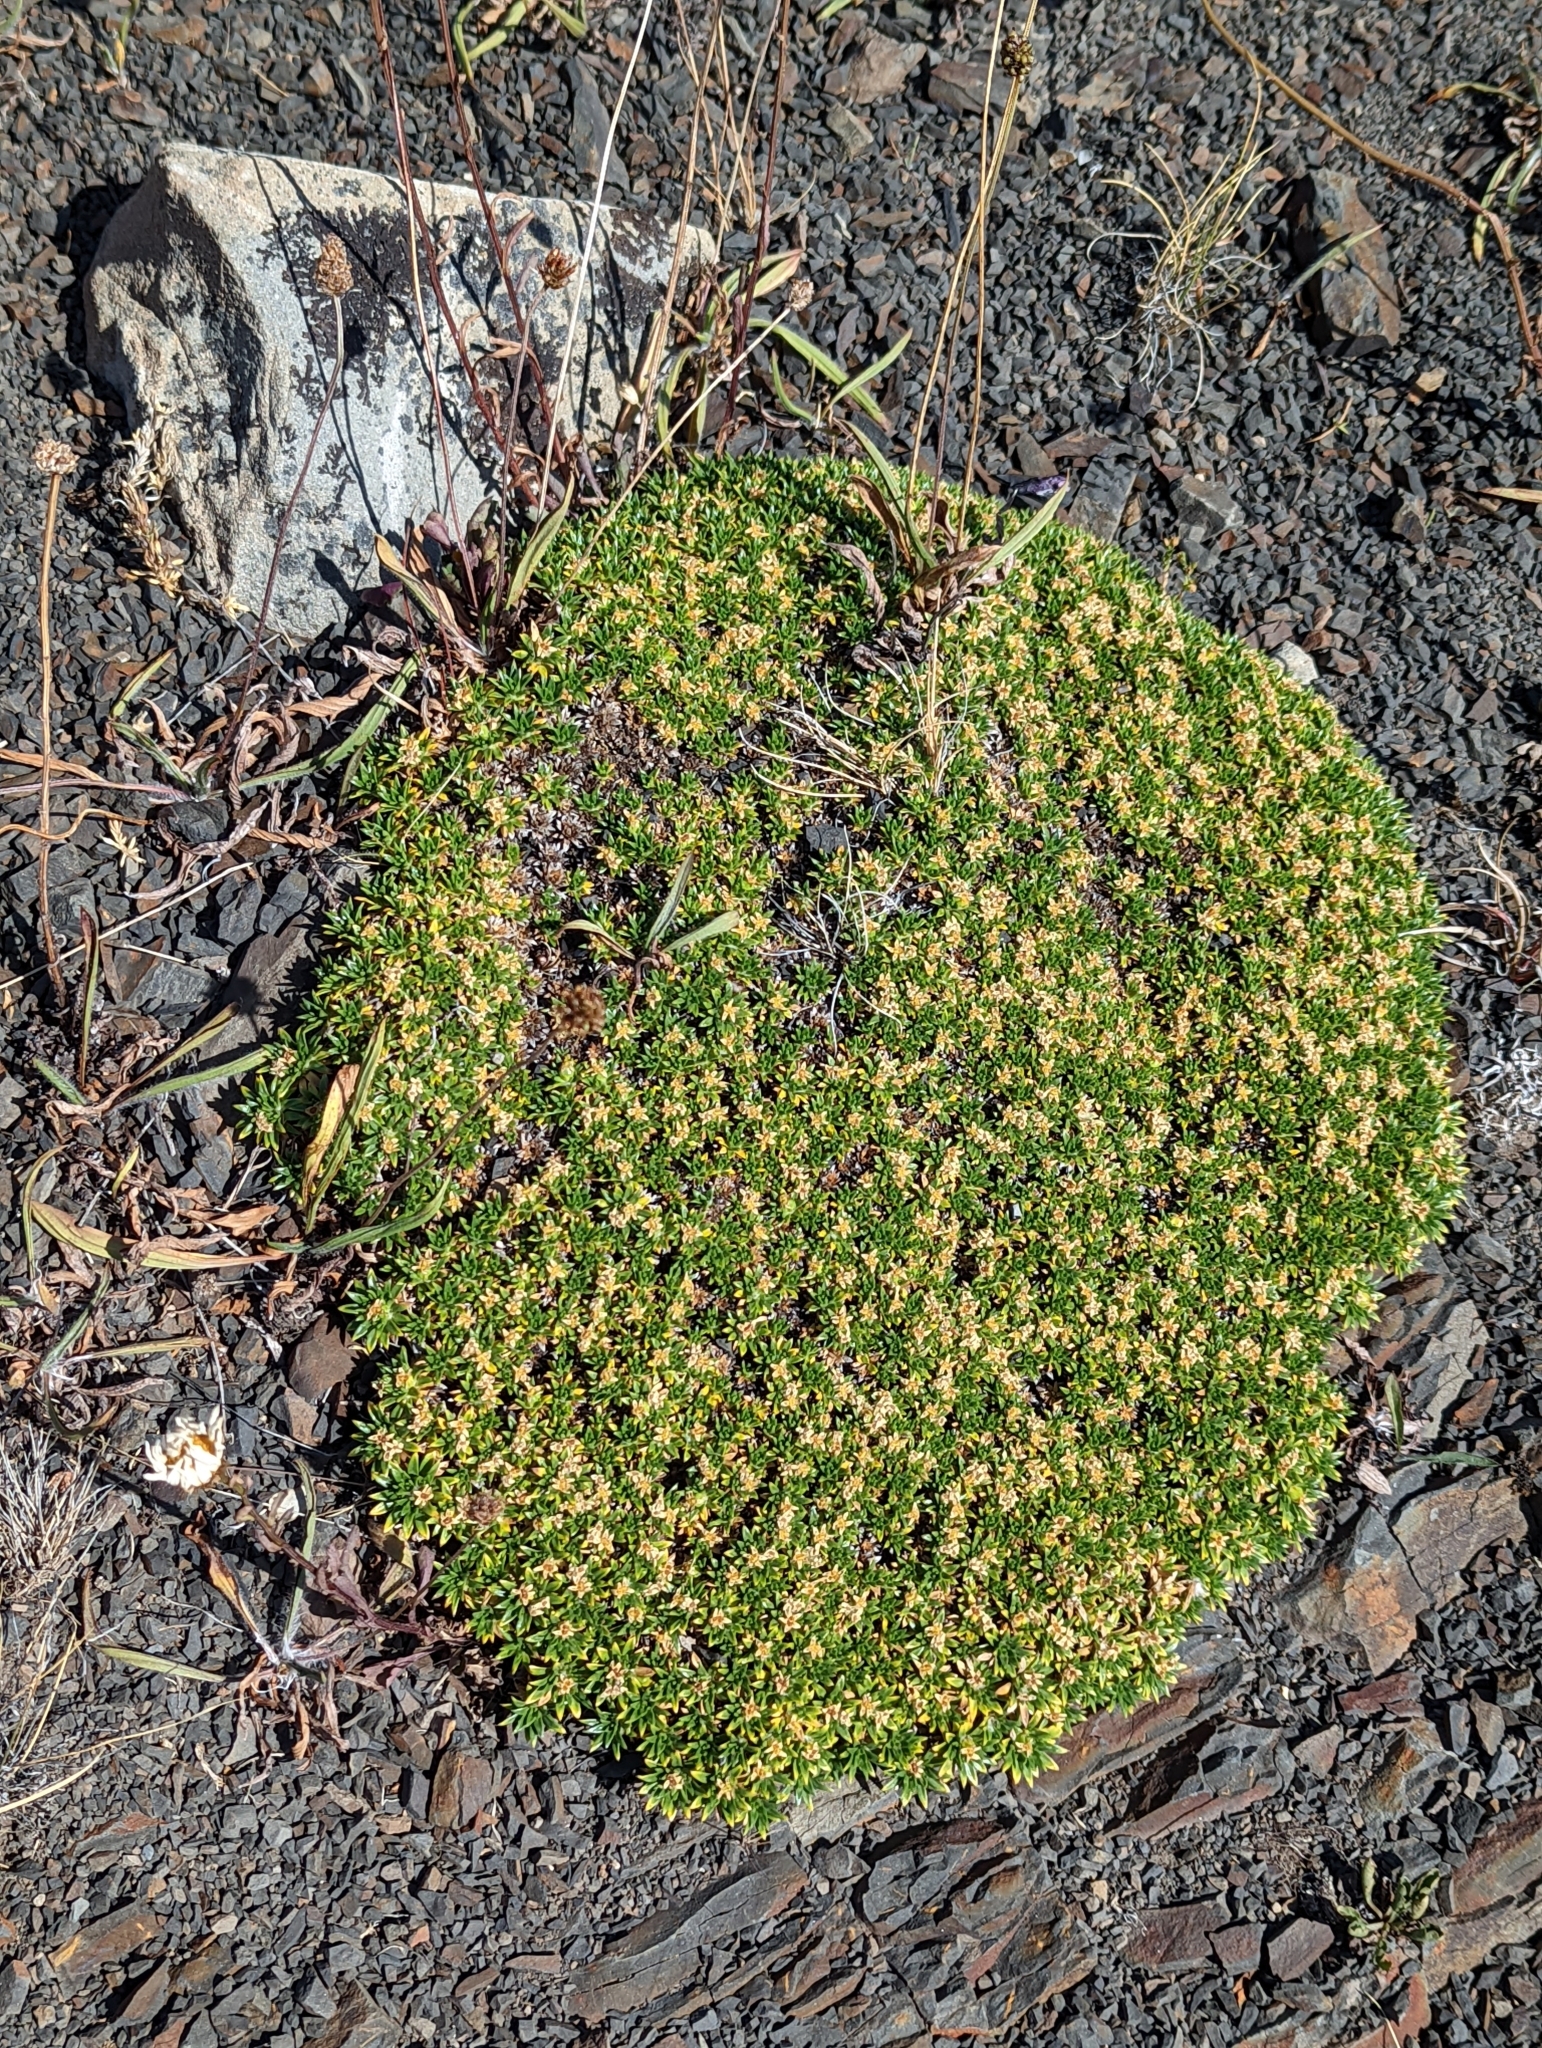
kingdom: Plantae
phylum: Tracheophyta
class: Magnoliopsida
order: Apiales
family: Apiaceae
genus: Azorella
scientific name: Azorella monantha
